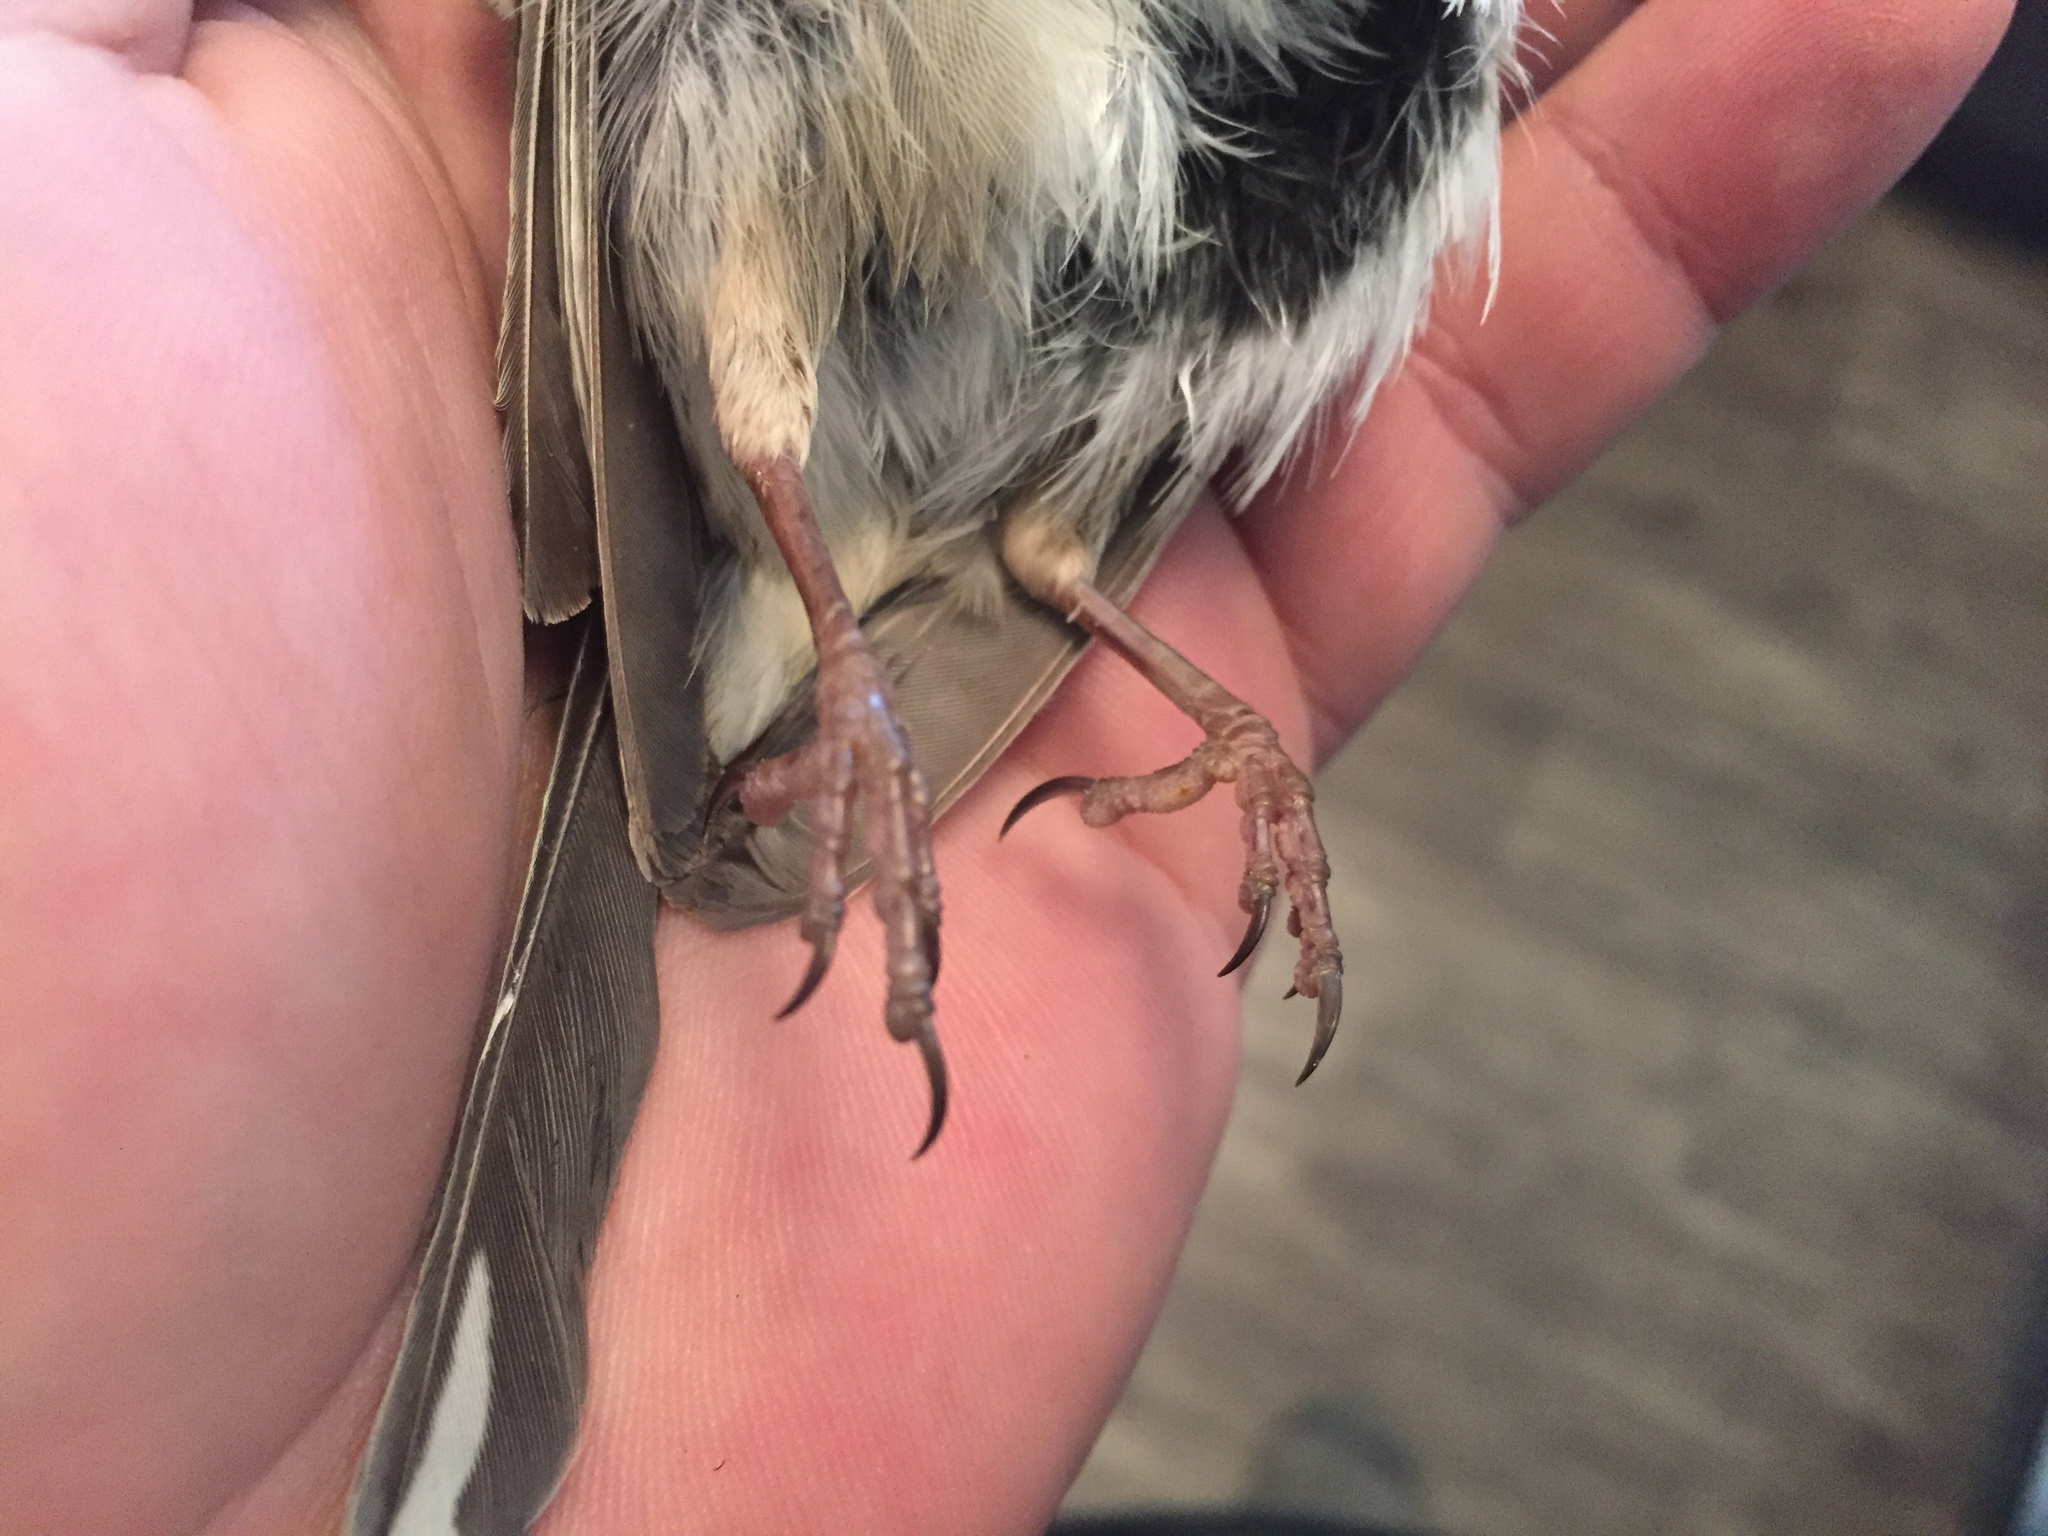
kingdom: Animalia
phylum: Chordata
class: Aves
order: Passeriformes
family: Fringillidae
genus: Fringilla
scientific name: Fringilla coelebs
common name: Common chaffinch
